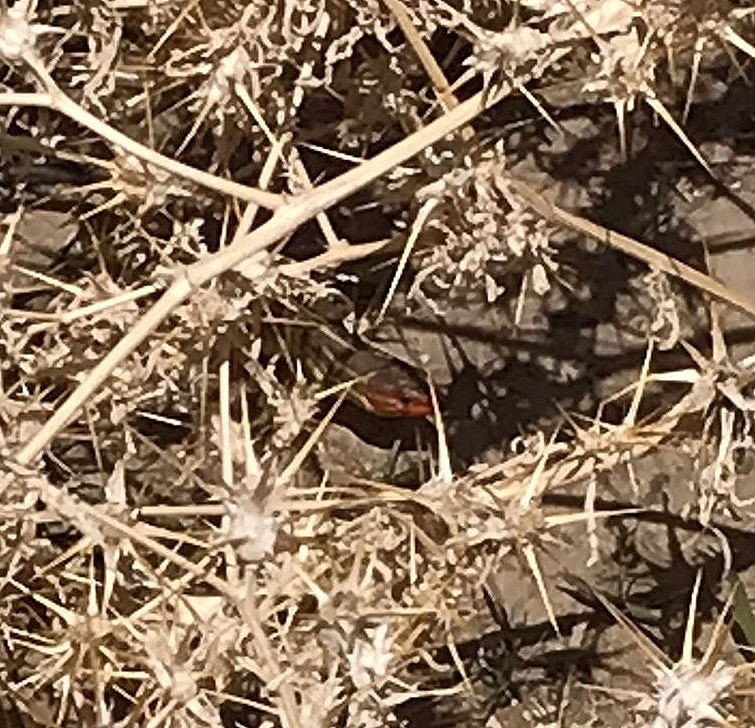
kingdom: Animalia
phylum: Chordata
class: Squamata
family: Lacertidae
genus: Psammodromus
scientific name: Psammodromus algirus
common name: Algerian psammodromus
